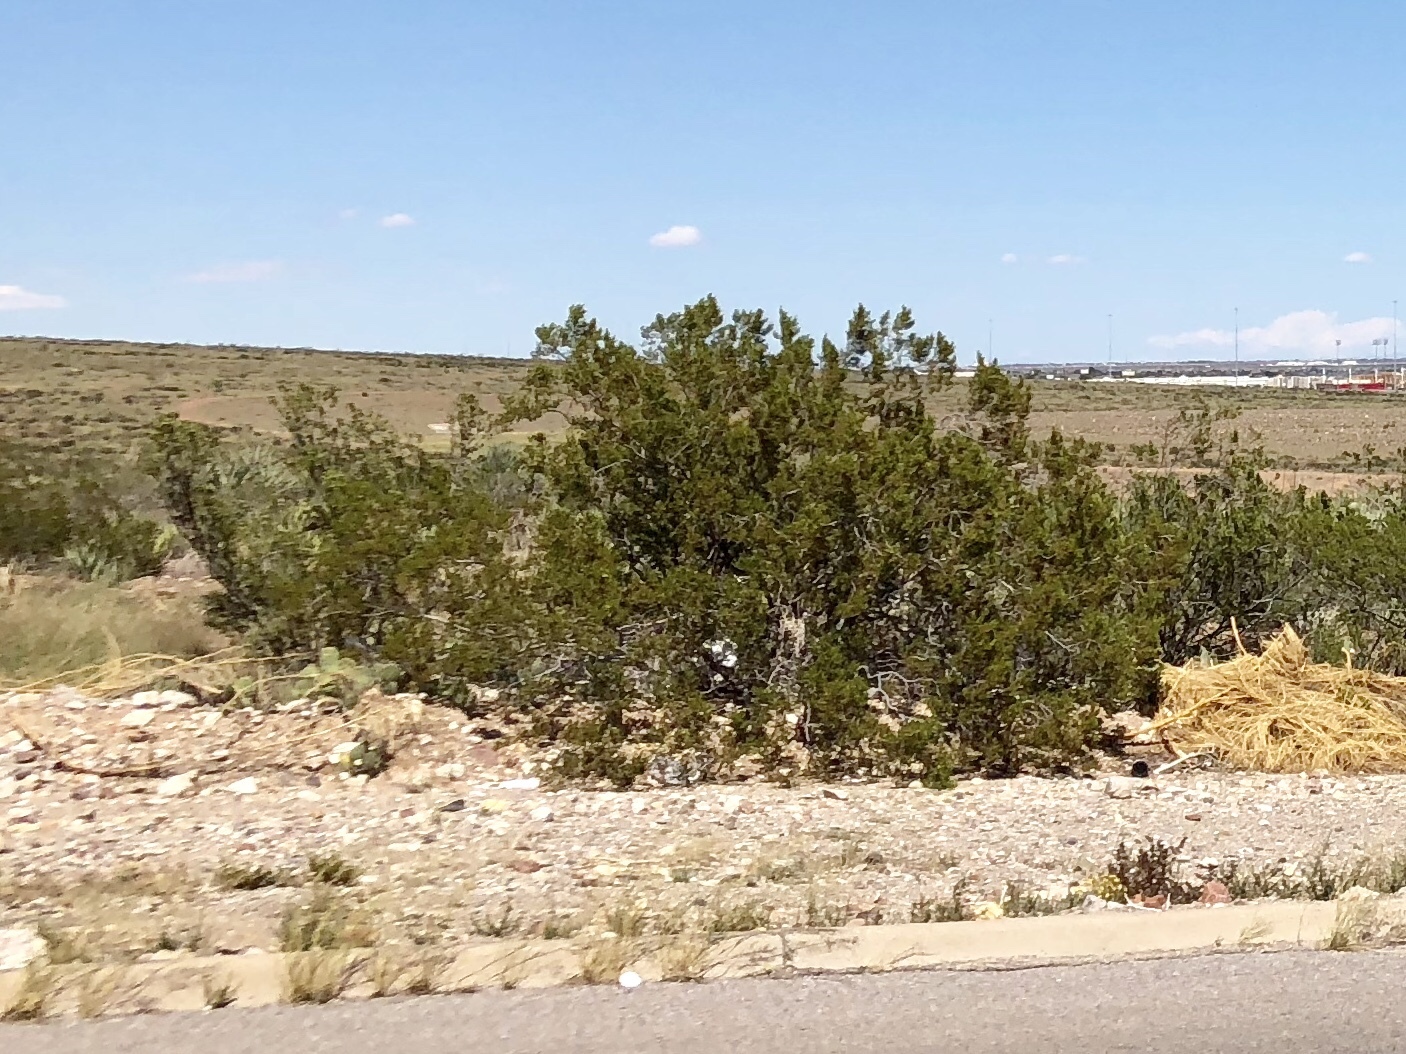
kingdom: Plantae
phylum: Tracheophyta
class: Magnoliopsida
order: Zygophyllales
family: Zygophyllaceae
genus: Larrea
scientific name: Larrea tridentata
